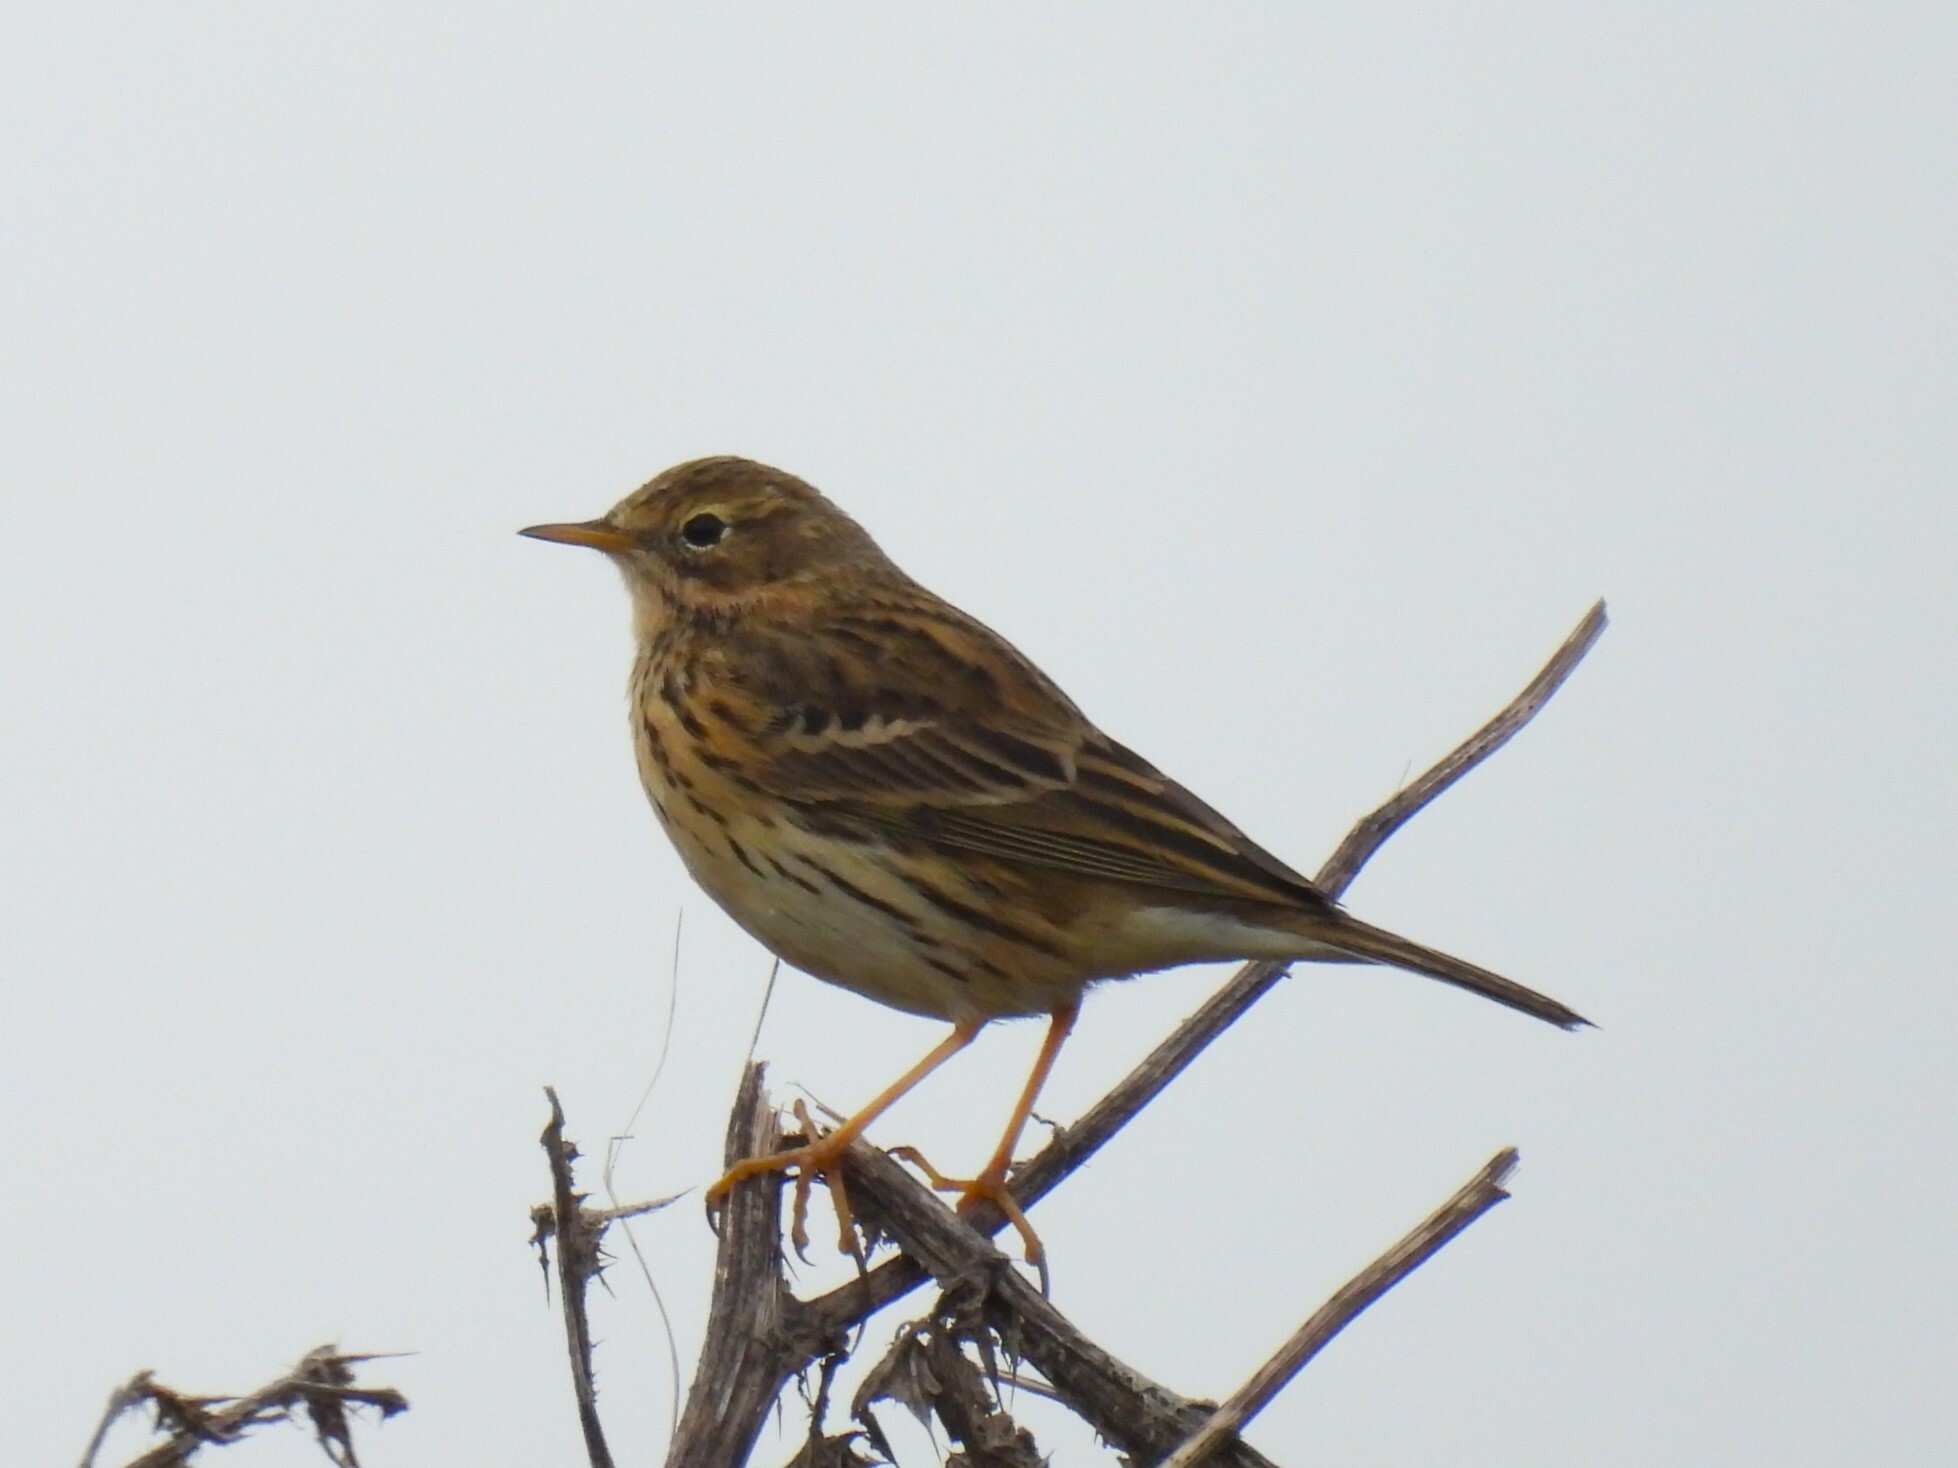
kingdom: Animalia
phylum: Chordata
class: Aves
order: Passeriformes
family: Motacillidae
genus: Anthus
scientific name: Anthus pratensis
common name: Meadow pipit
